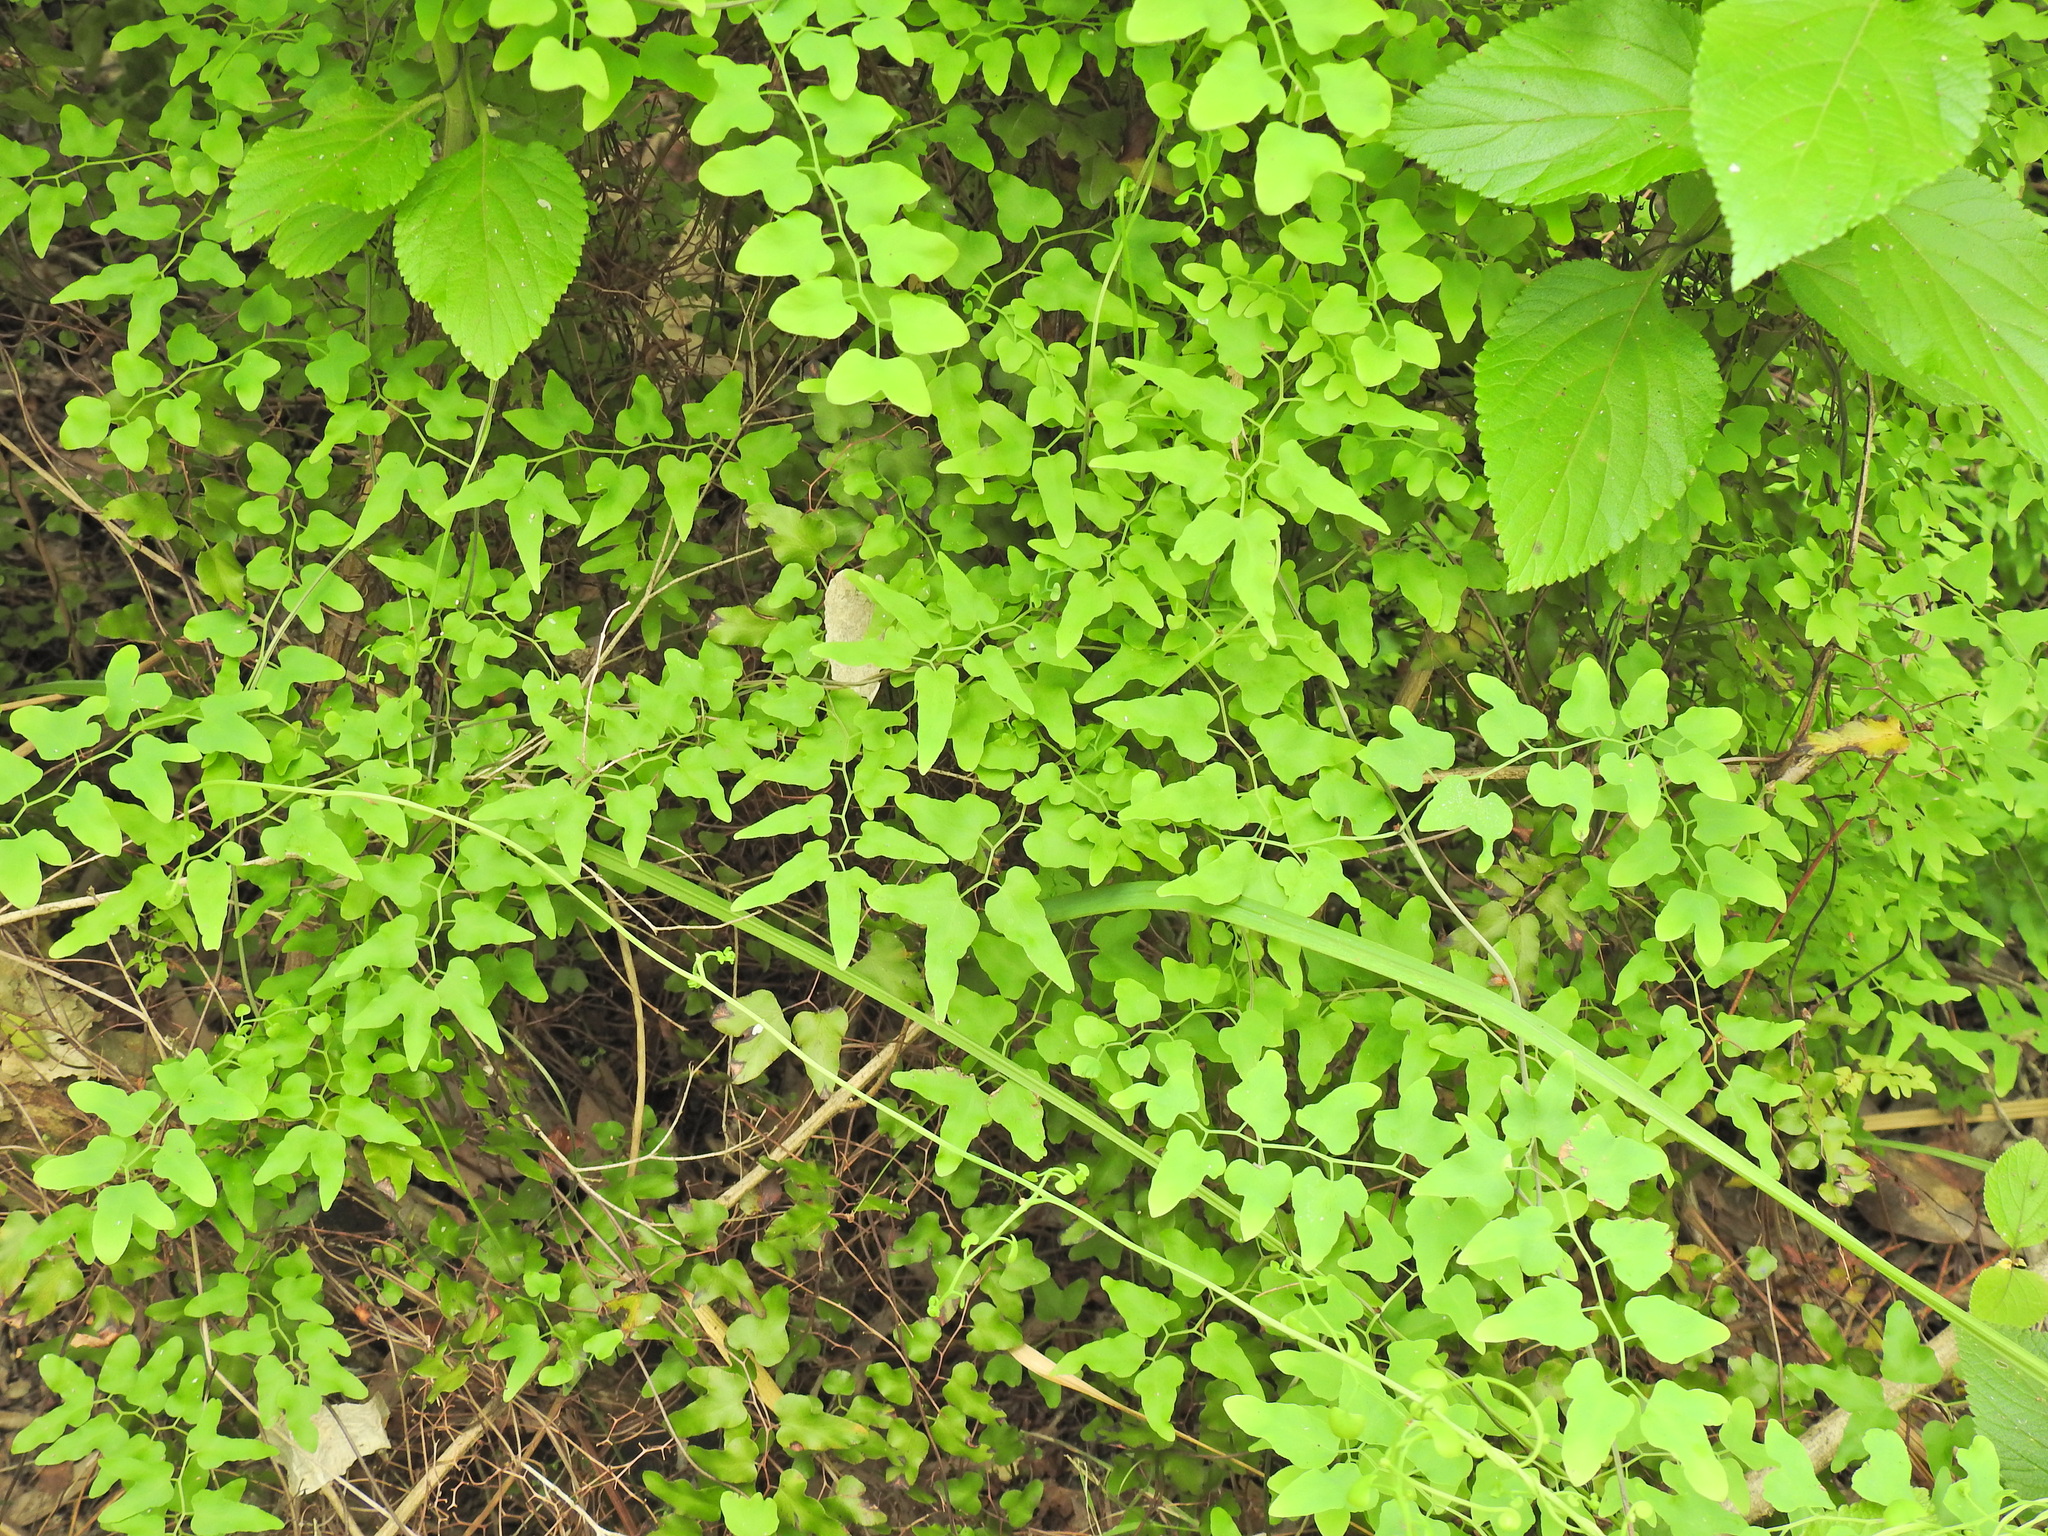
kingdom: Plantae
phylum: Tracheophyta
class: Polypodiopsida
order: Schizaeales
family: Lygodiaceae
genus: Lygodium
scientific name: Lygodium microphyllum
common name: Small-leaf climbing fern
